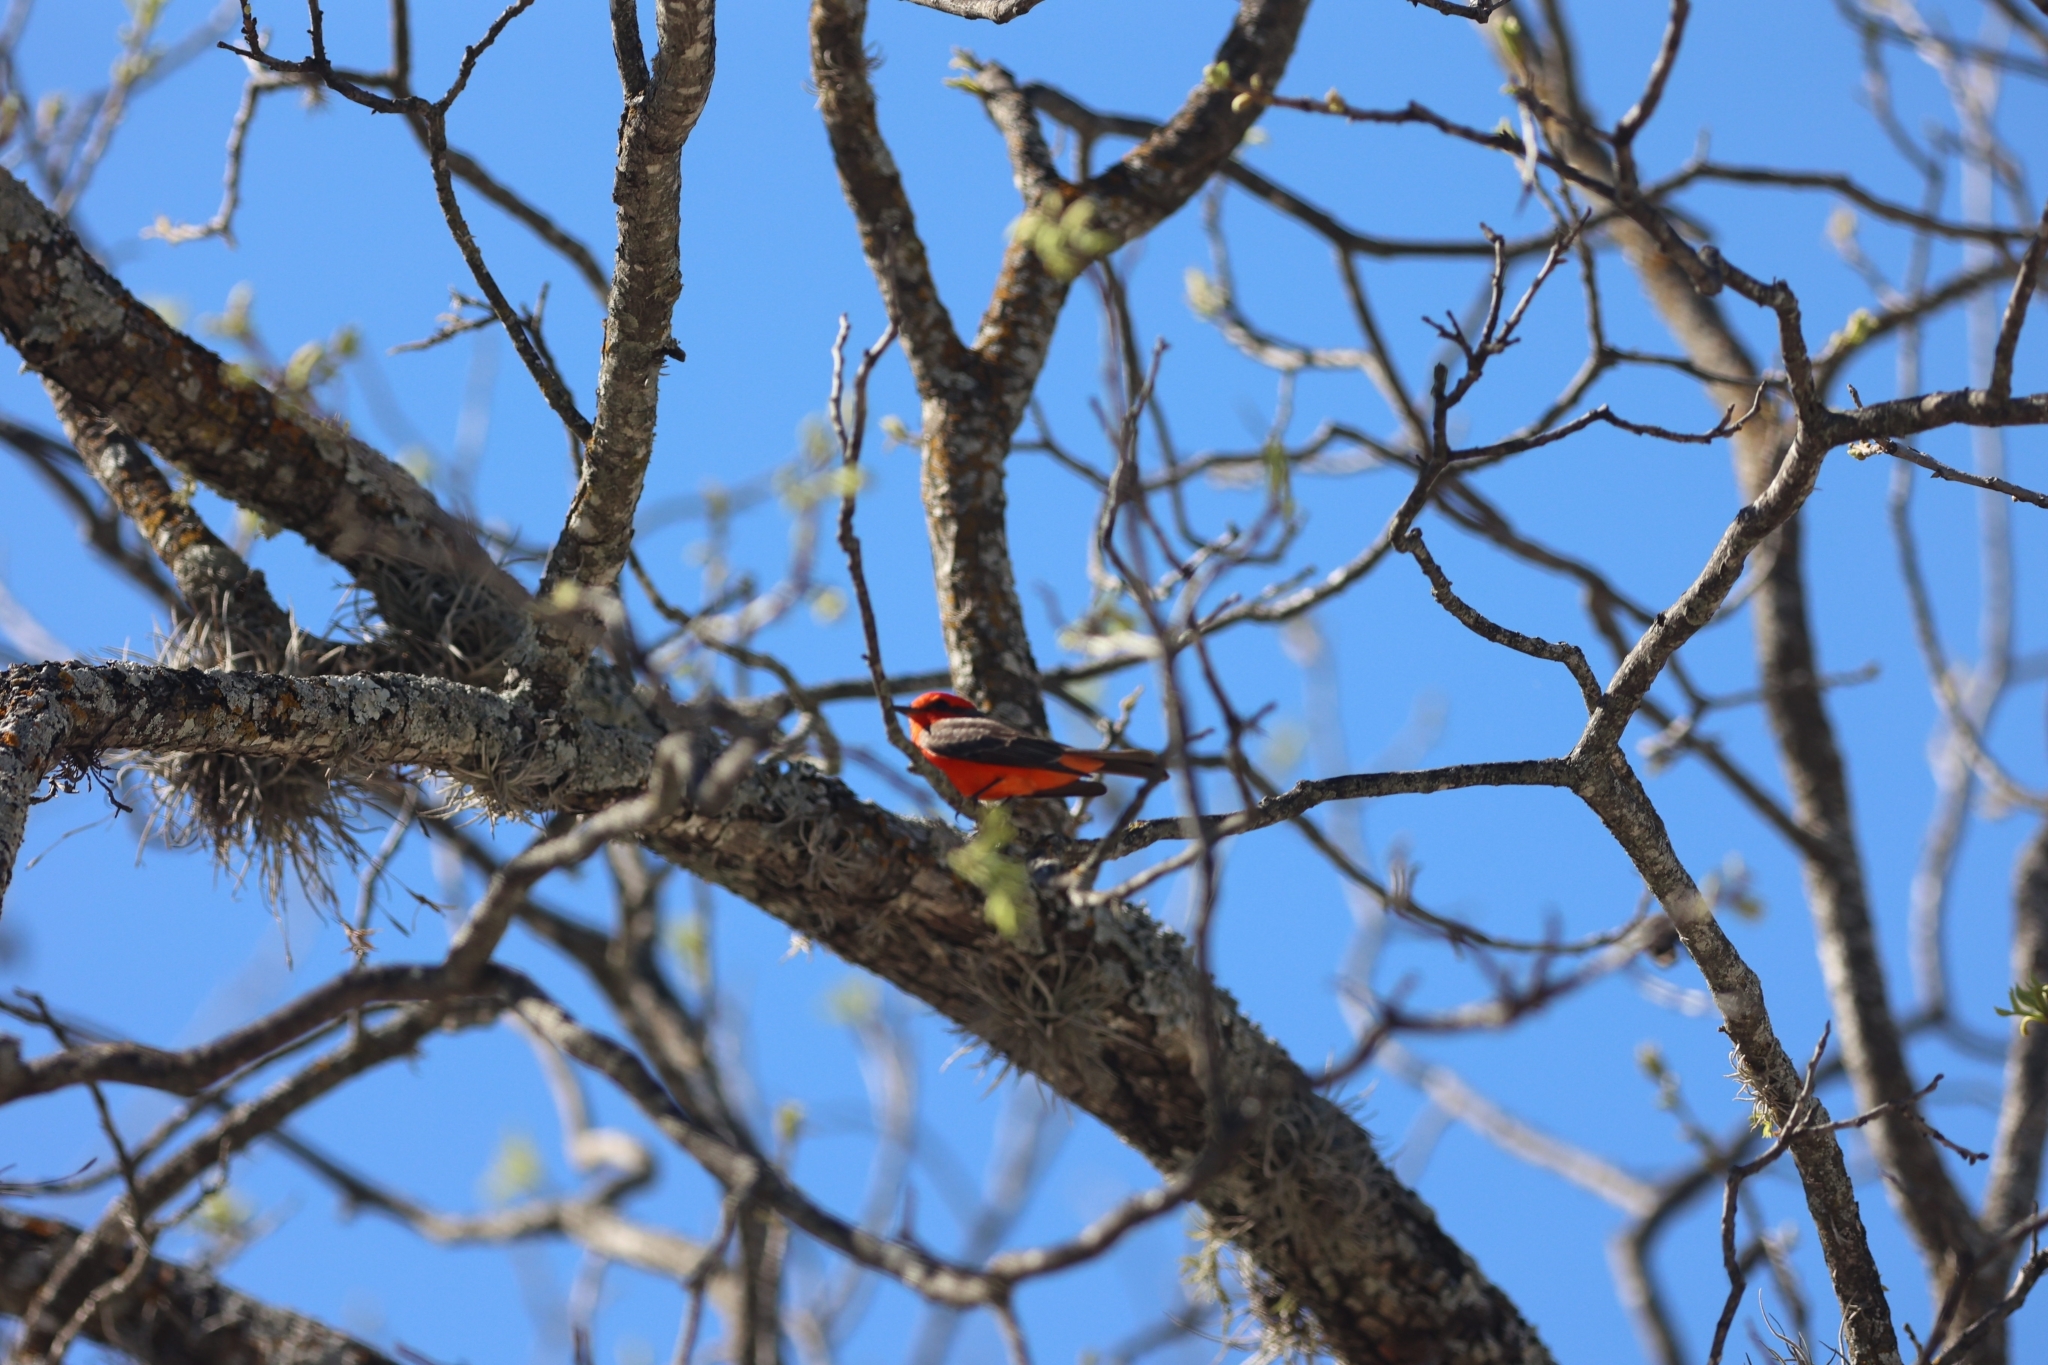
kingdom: Animalia
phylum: Chordata
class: Aves
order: Passeriformes
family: Tyrannidae
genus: Pyrocephalus
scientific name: Pyrocephalus rubinus
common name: Vermilion flycatcher
